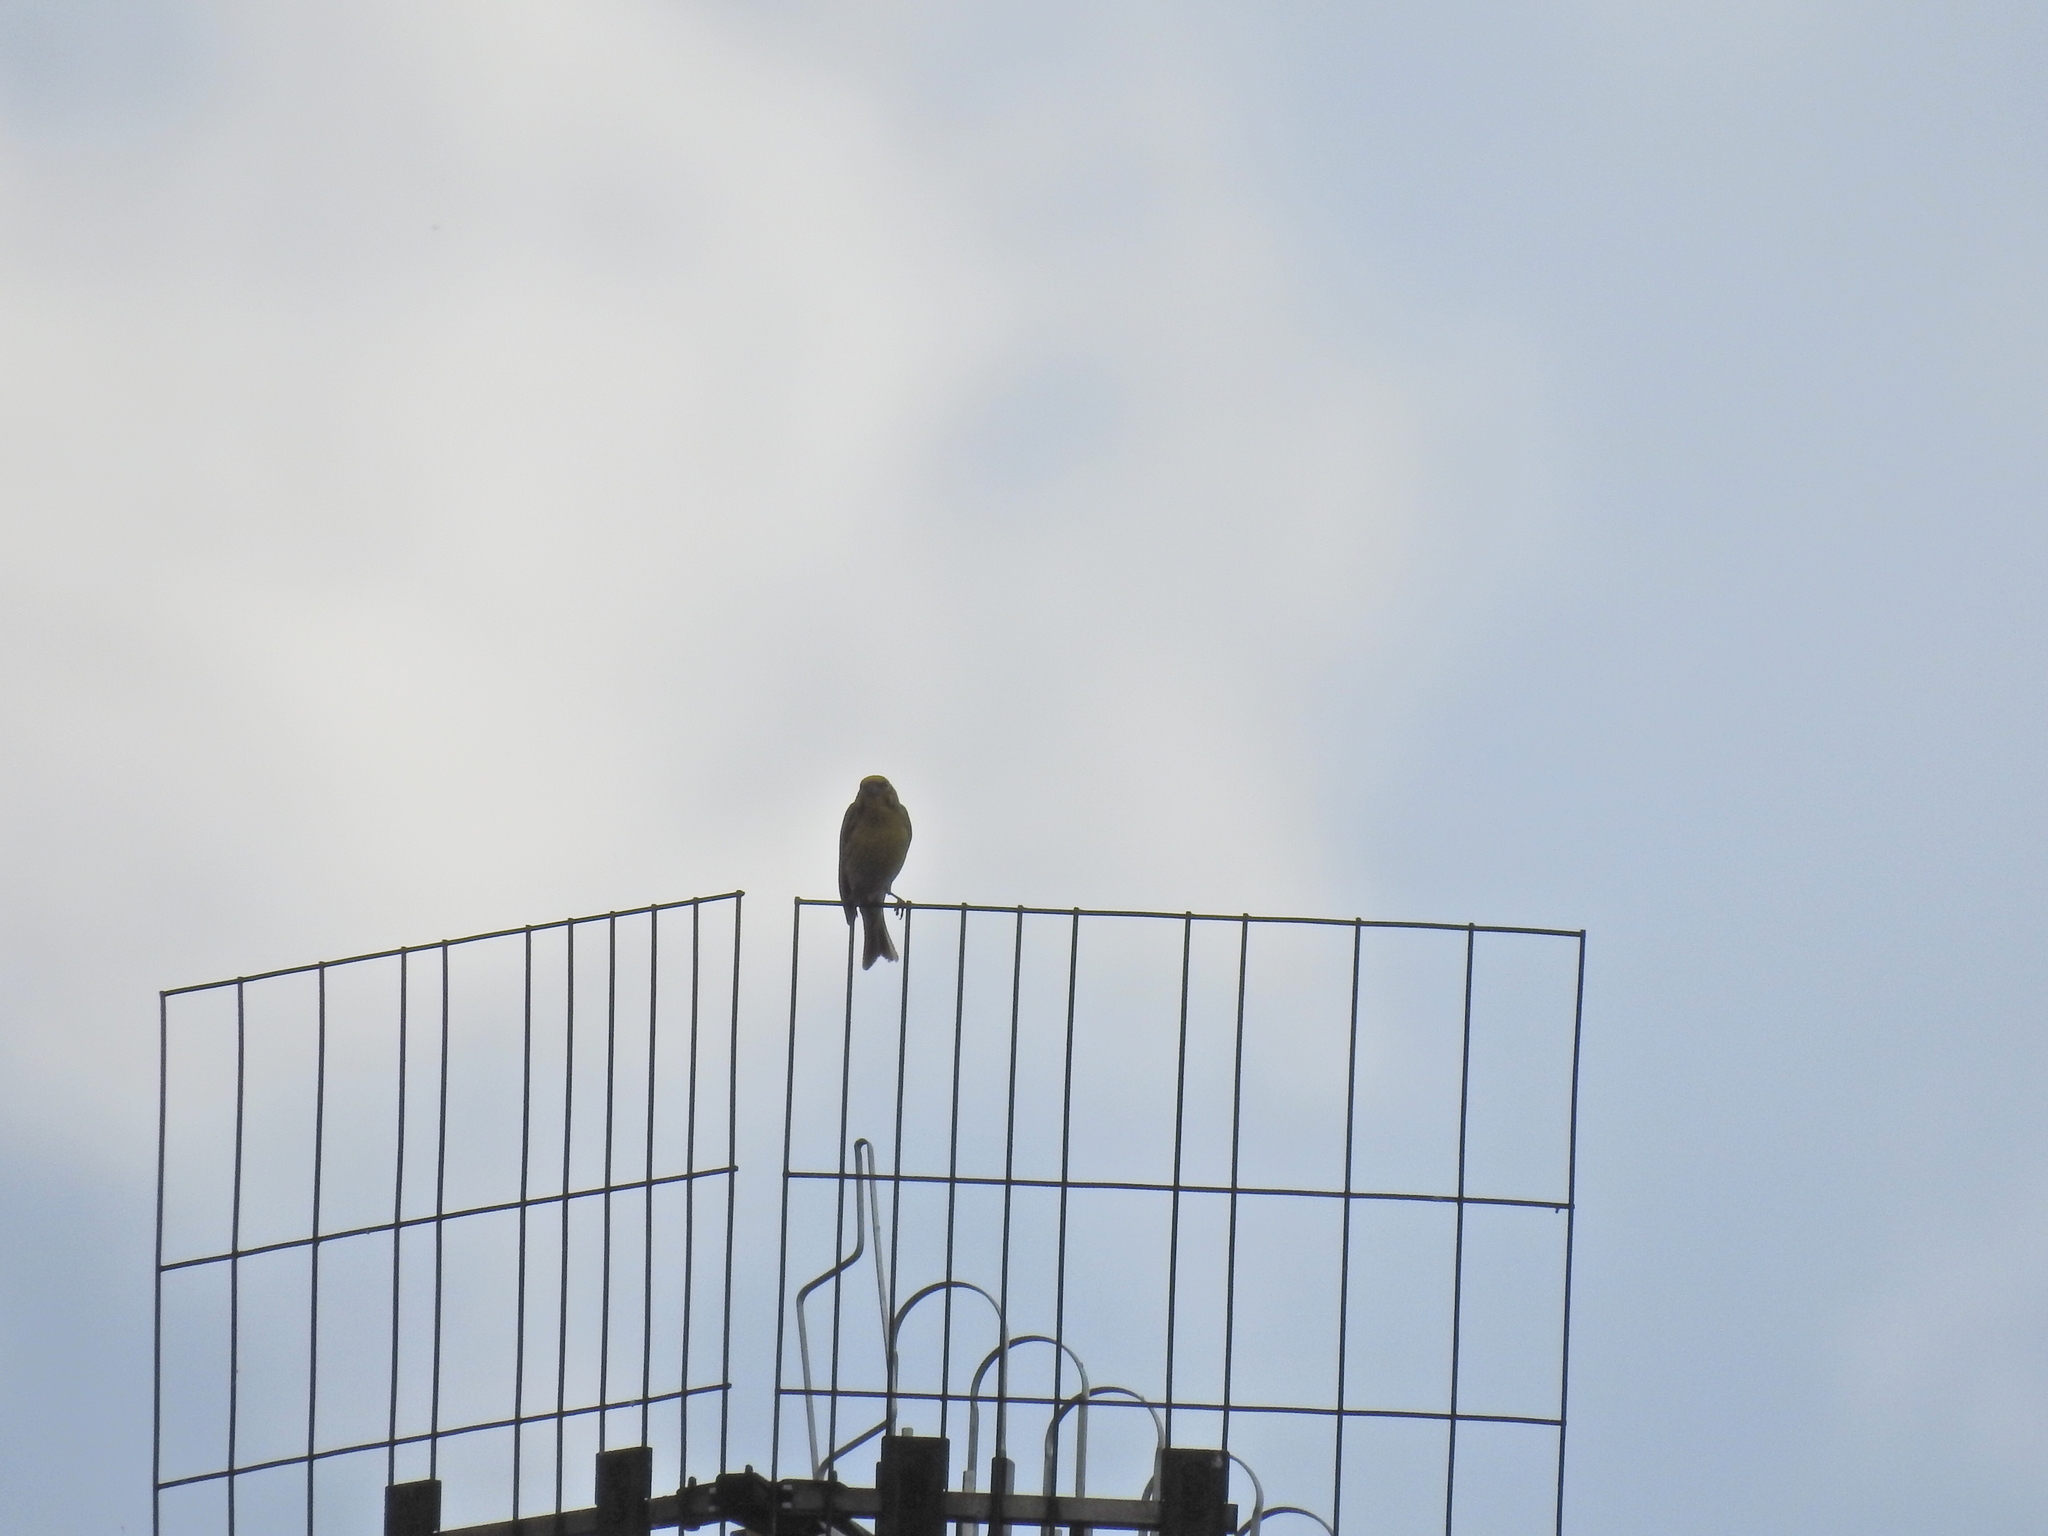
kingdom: Animalia
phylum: Chordata
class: Aves
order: Passeriformes
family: Emberizidae
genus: Emberiza
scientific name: Emberiza citrinella
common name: Yellowhammer
